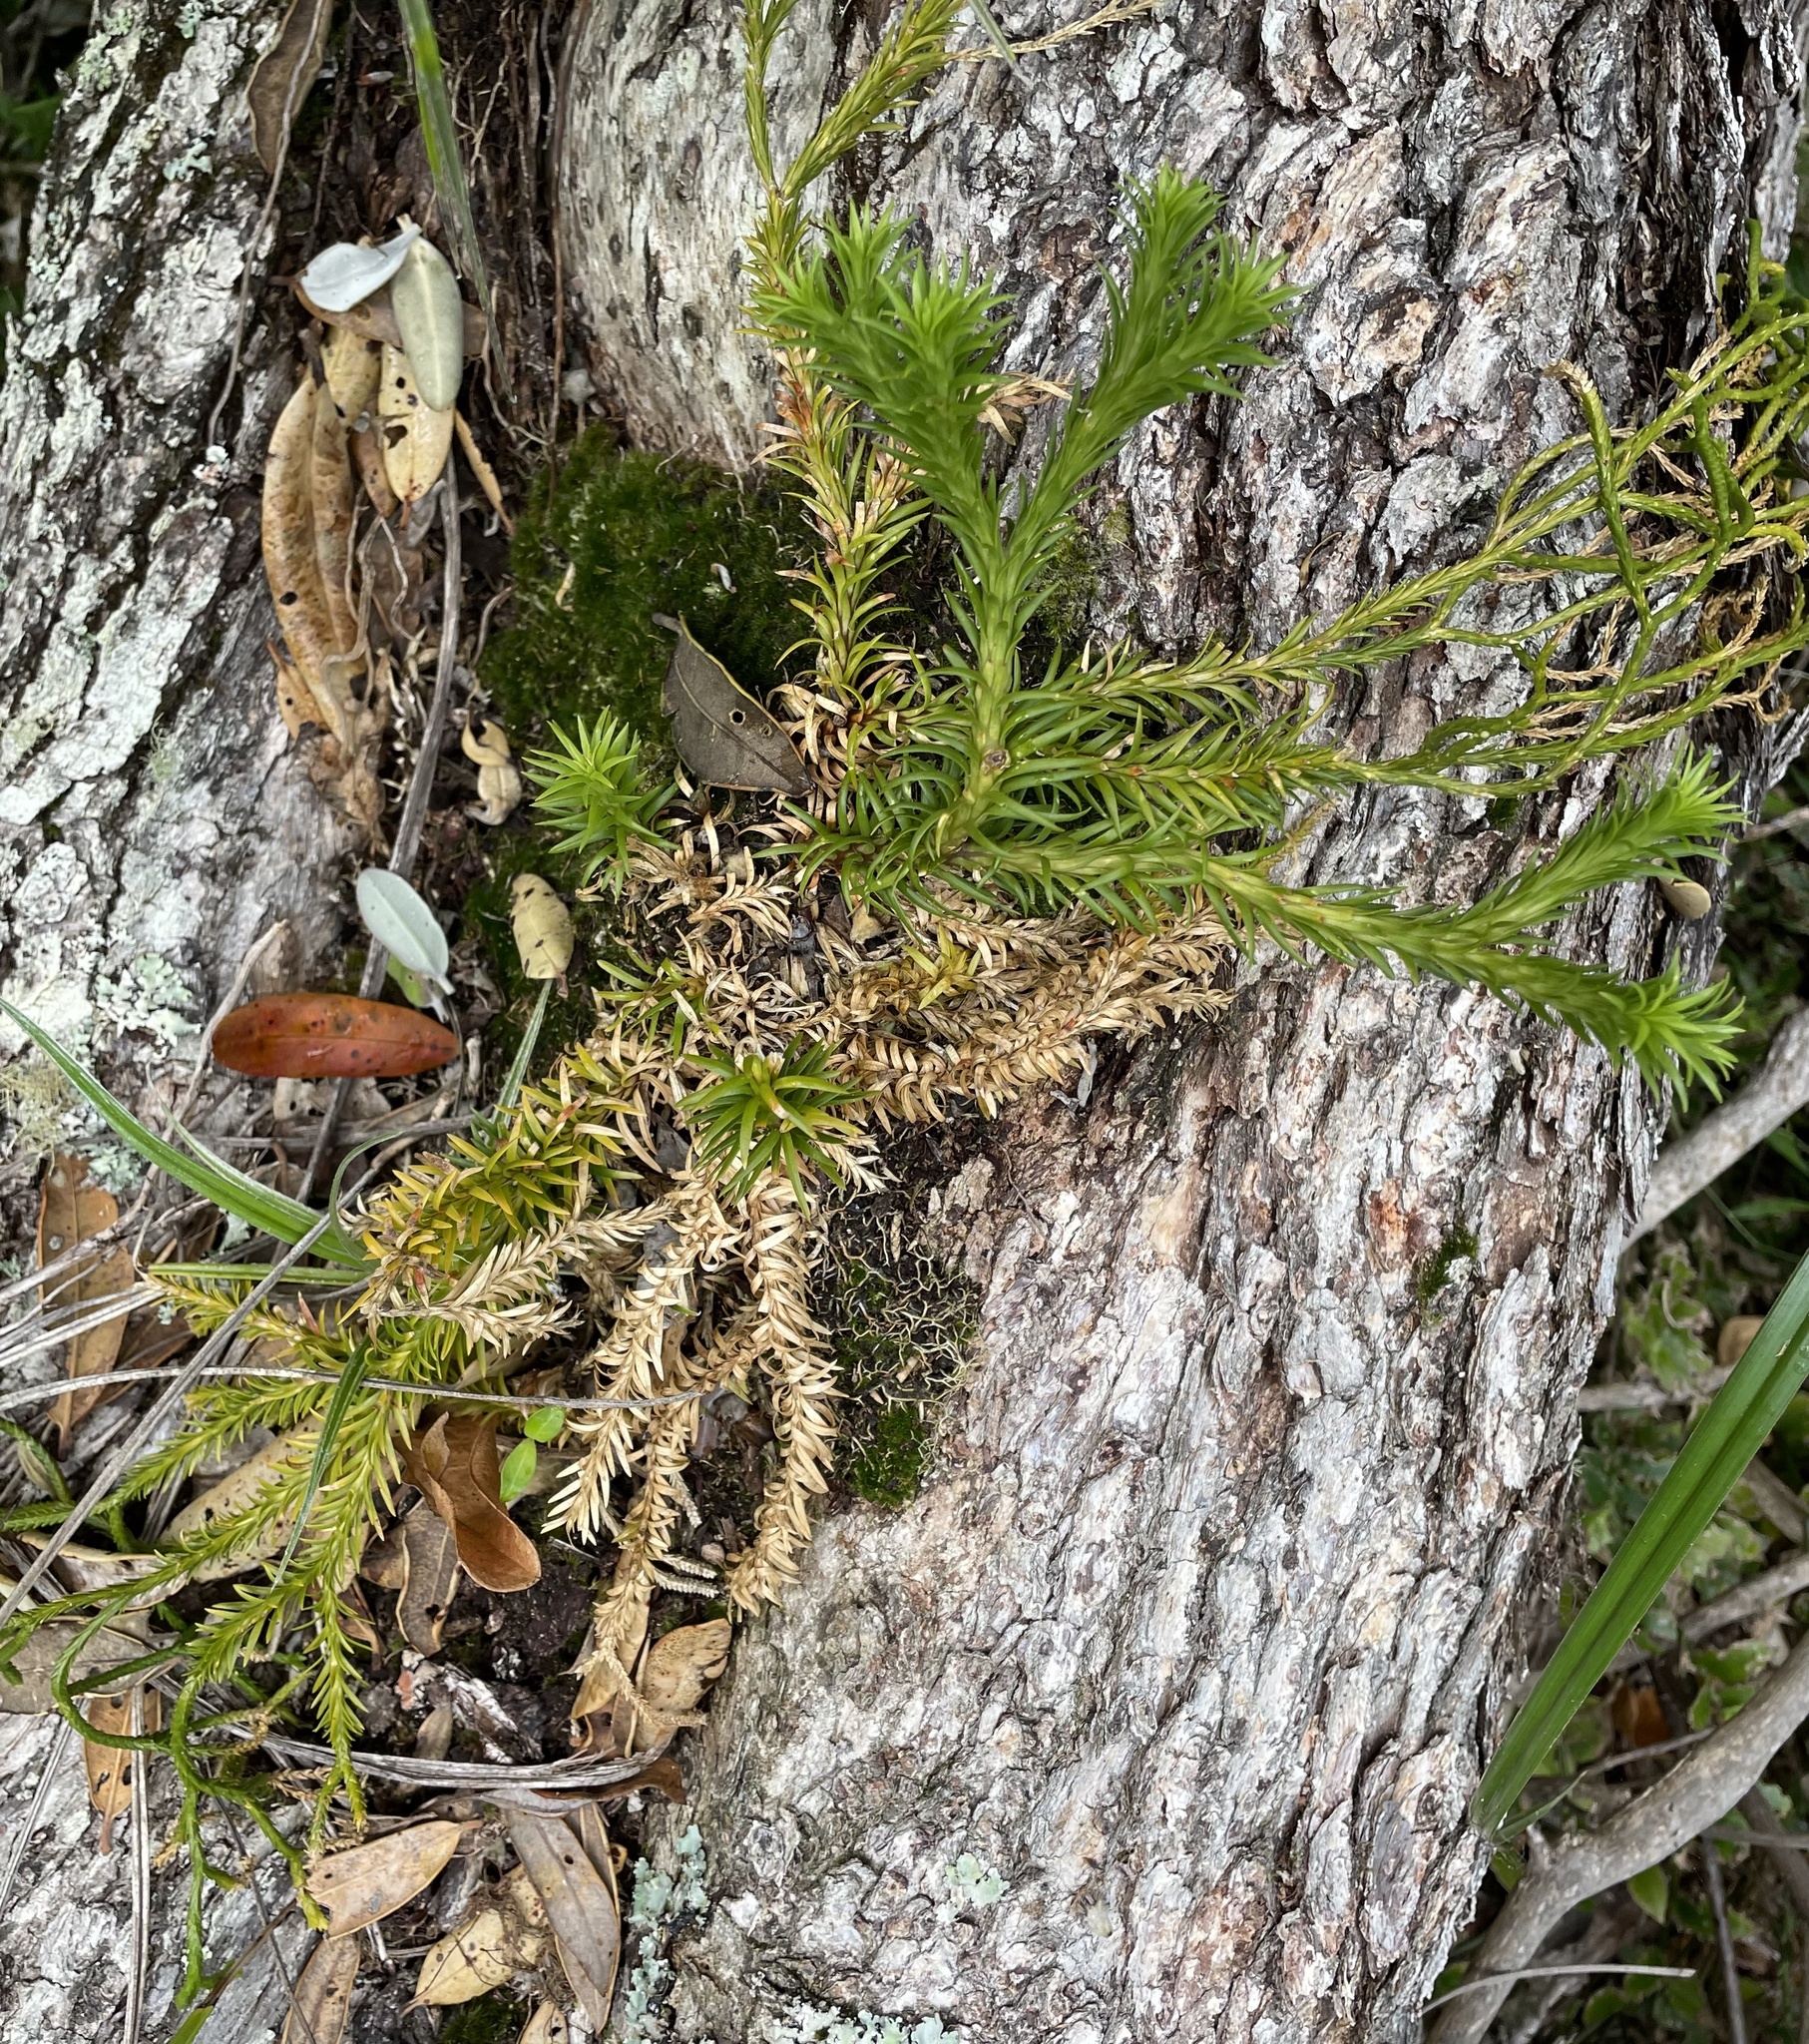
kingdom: Plantae
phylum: Tracheophyta
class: Lycopodiopsida
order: Lycopodiales
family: Lycopodiaceae
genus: Phlegmariurus
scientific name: Phlegmariurus varius
